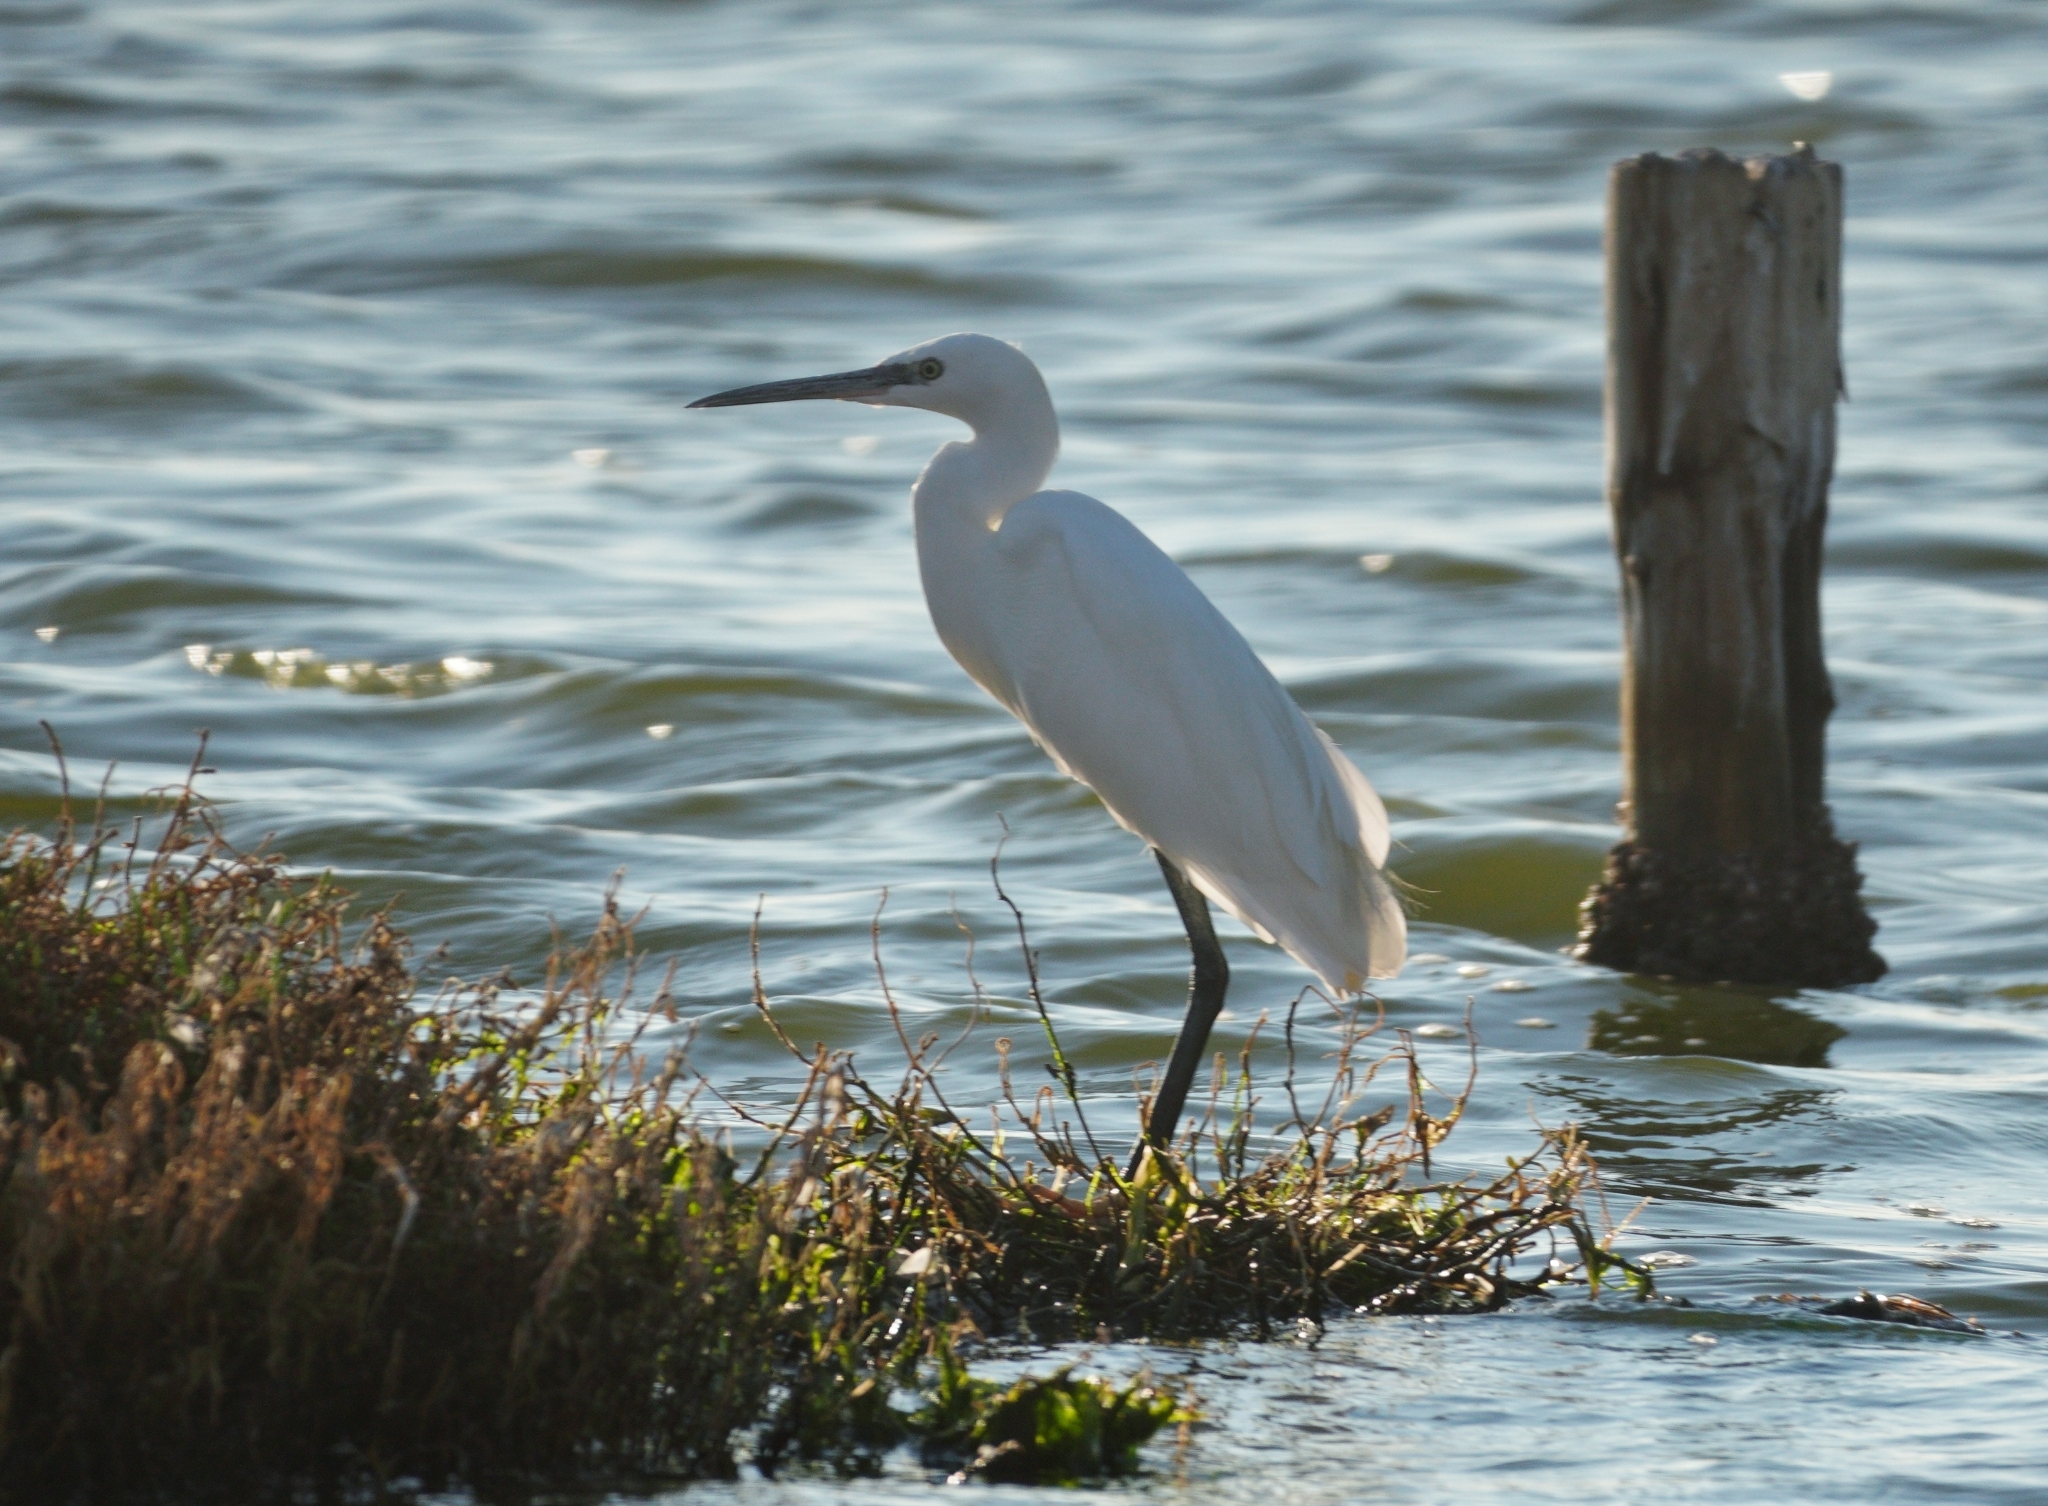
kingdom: Animalia
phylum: Chordata
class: Aves
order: Pelecaniformes
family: Ardeidae
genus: Egretta
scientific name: Egretta garzetta
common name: Little egret
